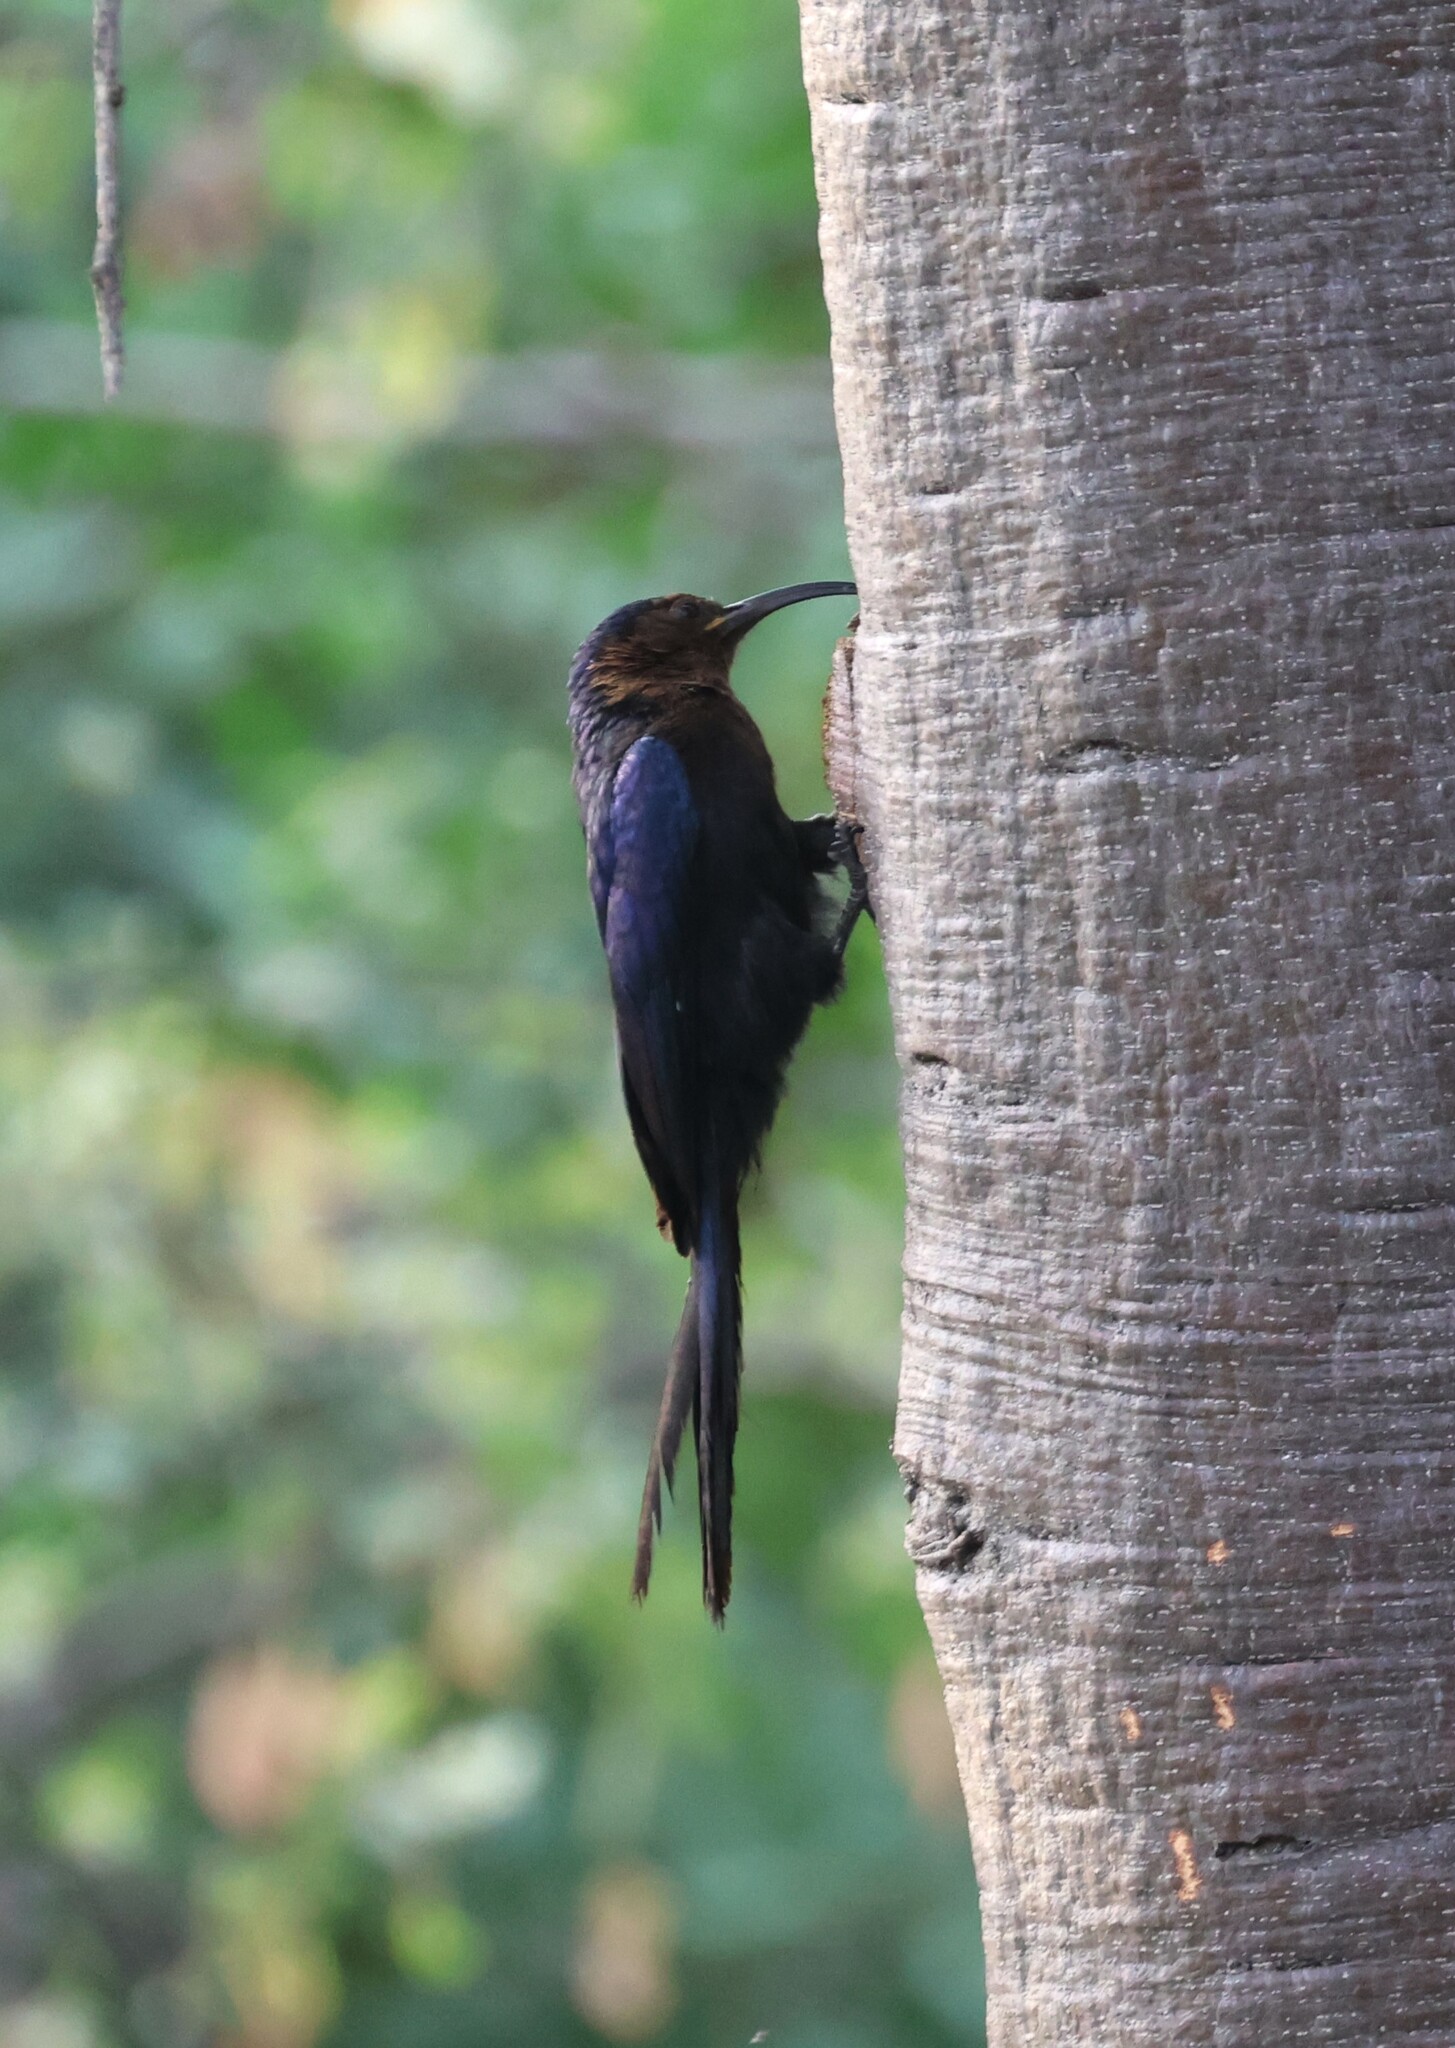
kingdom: Animalia
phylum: Chordata
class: Aves
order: Bucerotiformes
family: Phoeniculidae
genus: Rhinopomastus
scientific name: Rhinopomastus cyanomelas
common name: Common scimitarbill
